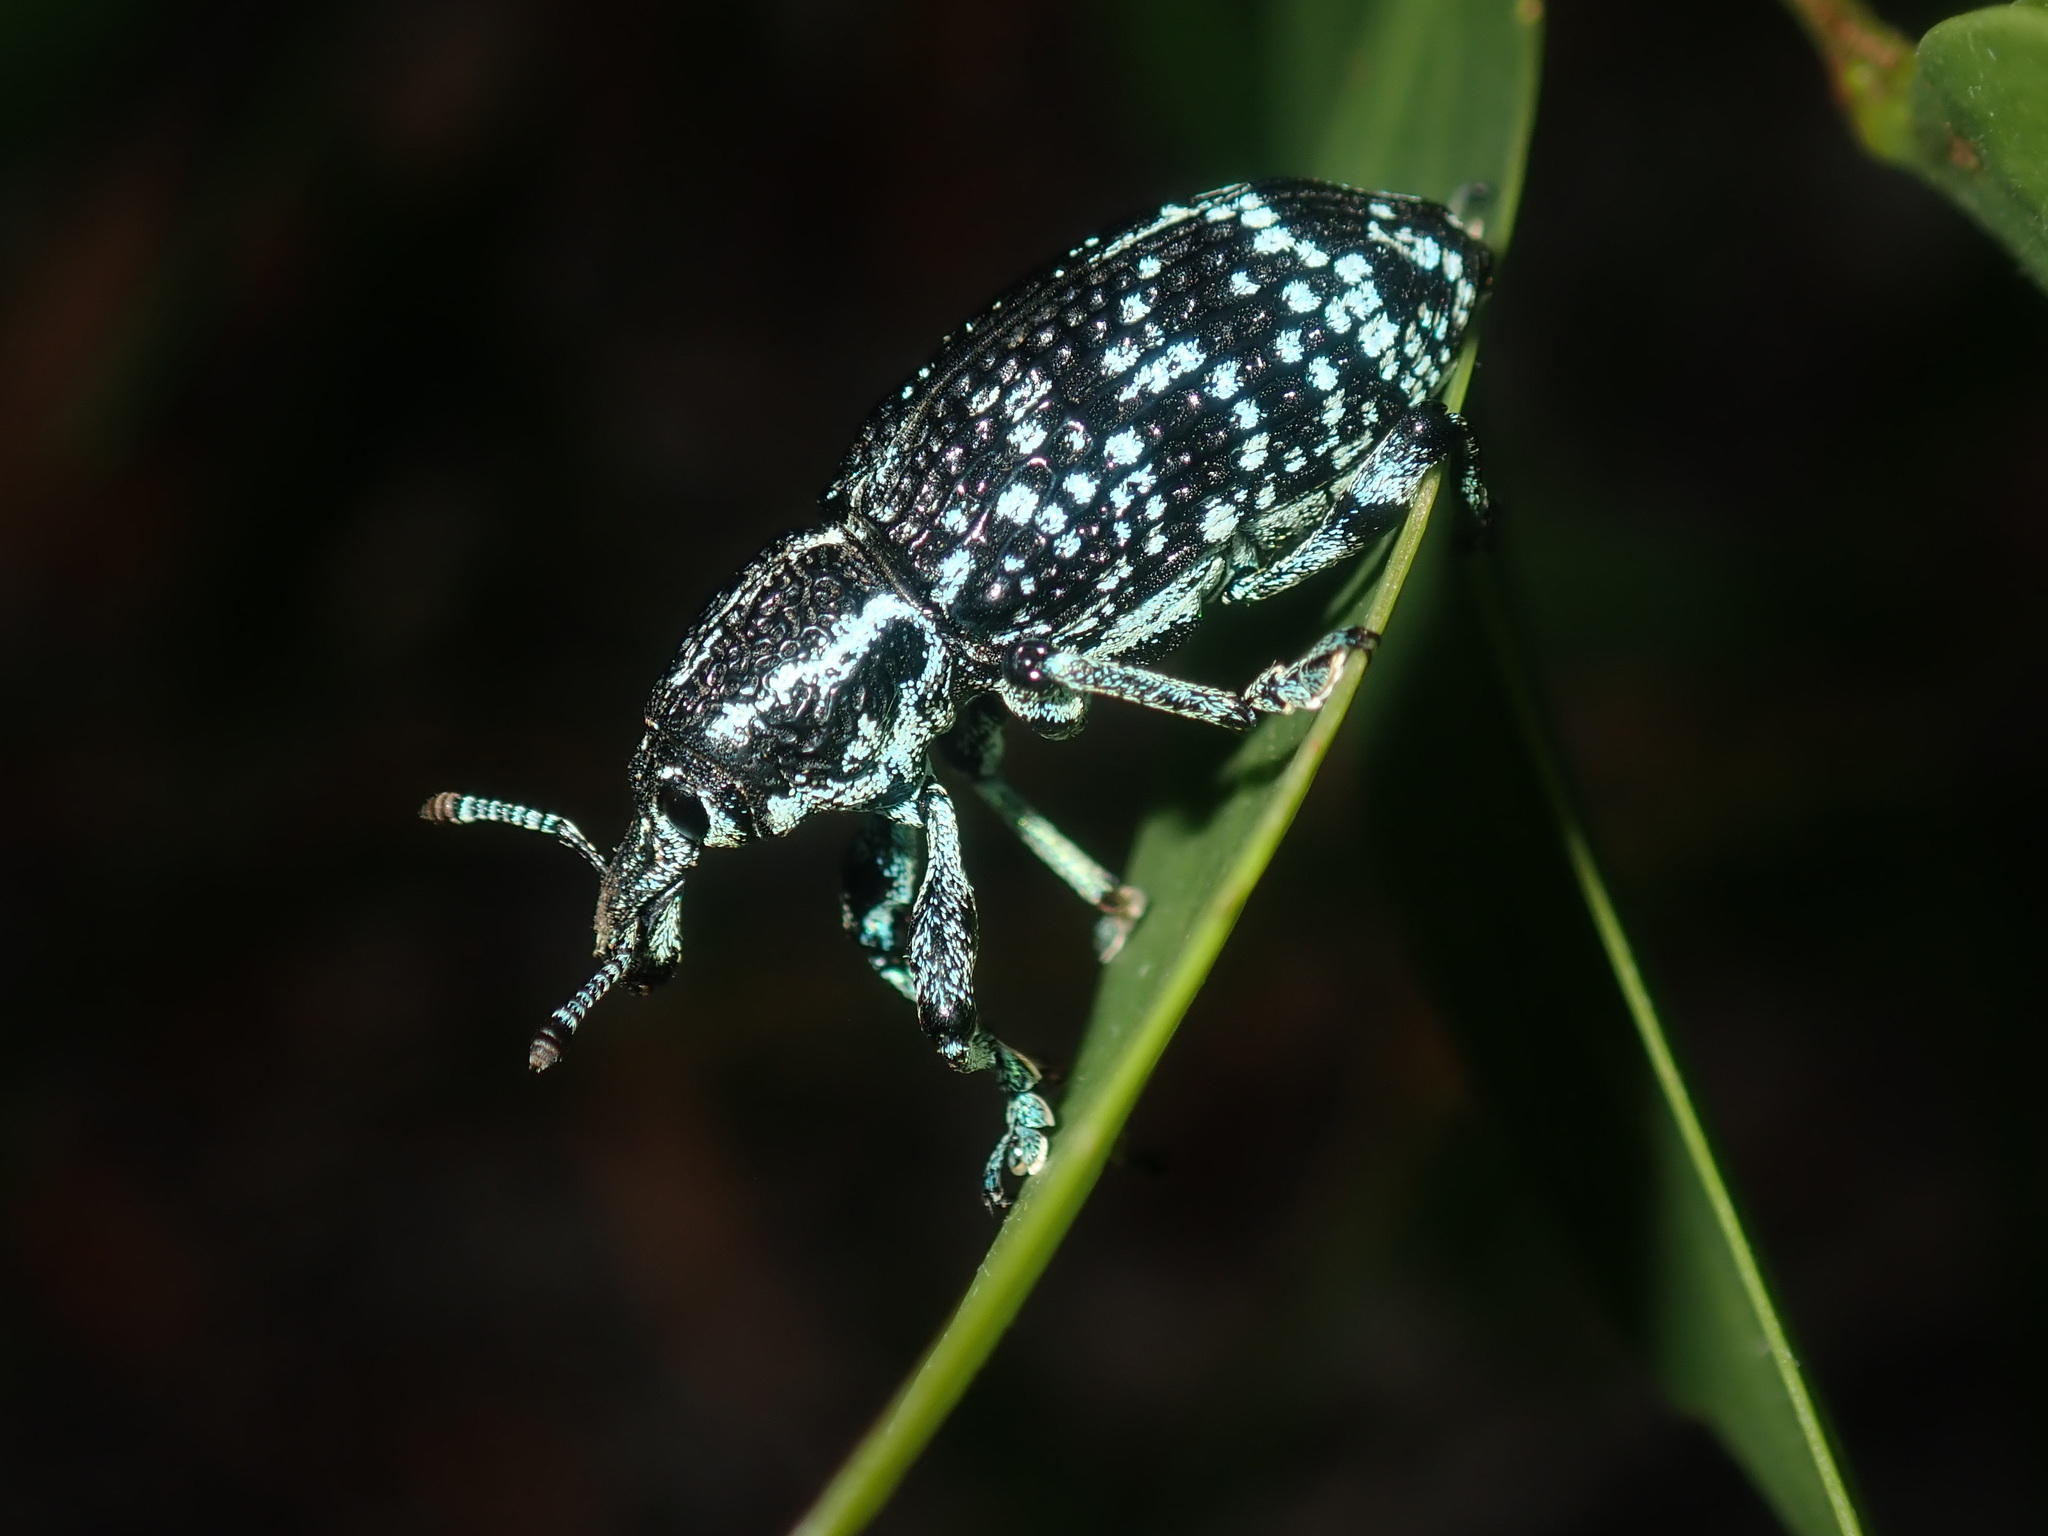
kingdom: Animalia
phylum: Arthropoda
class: Insecta
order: Coleoptera
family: Curculionidae
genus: Chrysolopus
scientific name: Chrysolopus spectabilis
